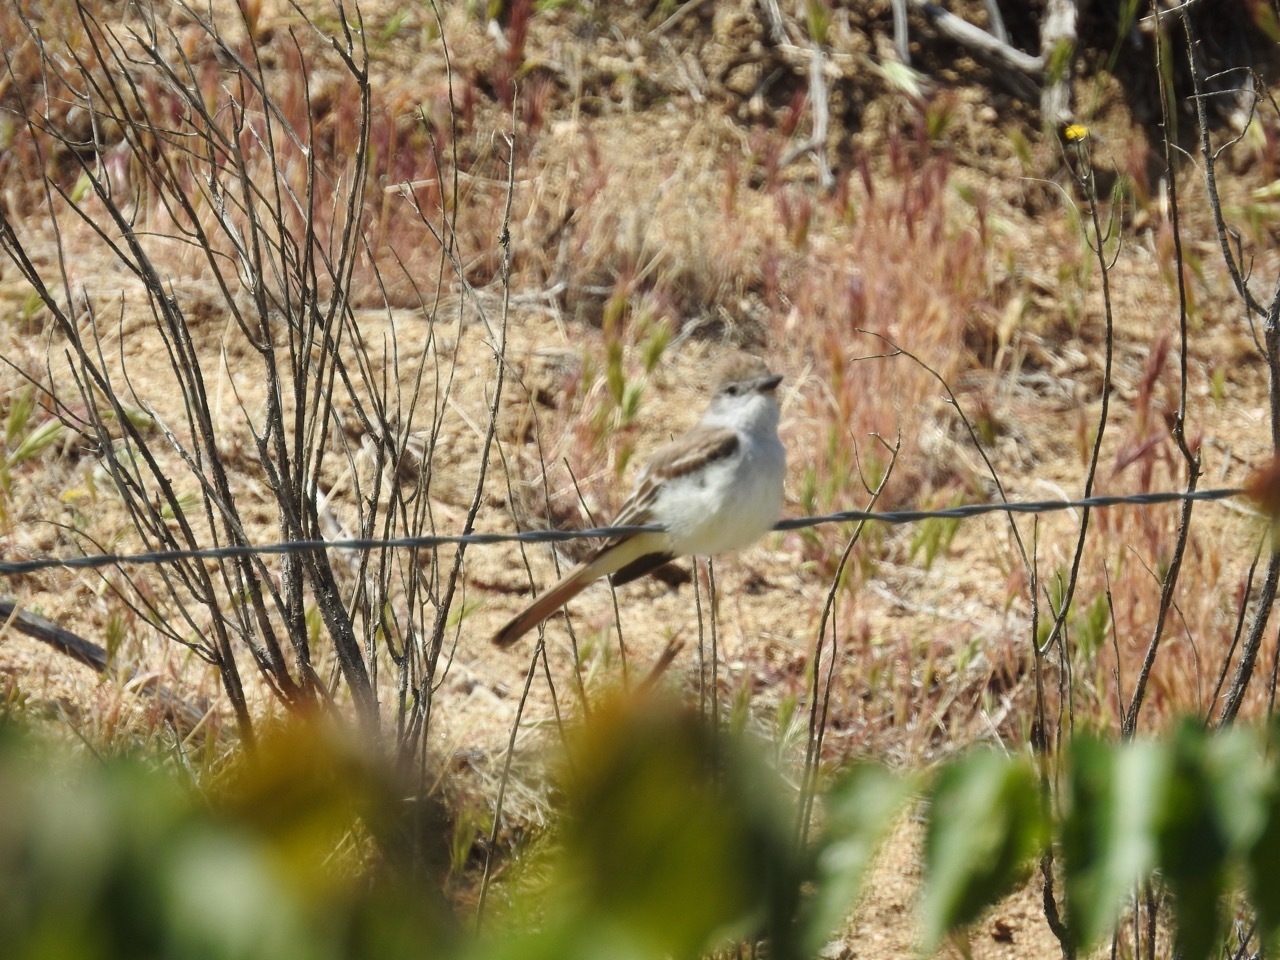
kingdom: Animalia
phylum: Chordata
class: Aves
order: Passeriformes
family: Tyrannidae
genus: Myiarchus
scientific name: Myiarchus cinerascens
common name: Ash-throated flycatcher
